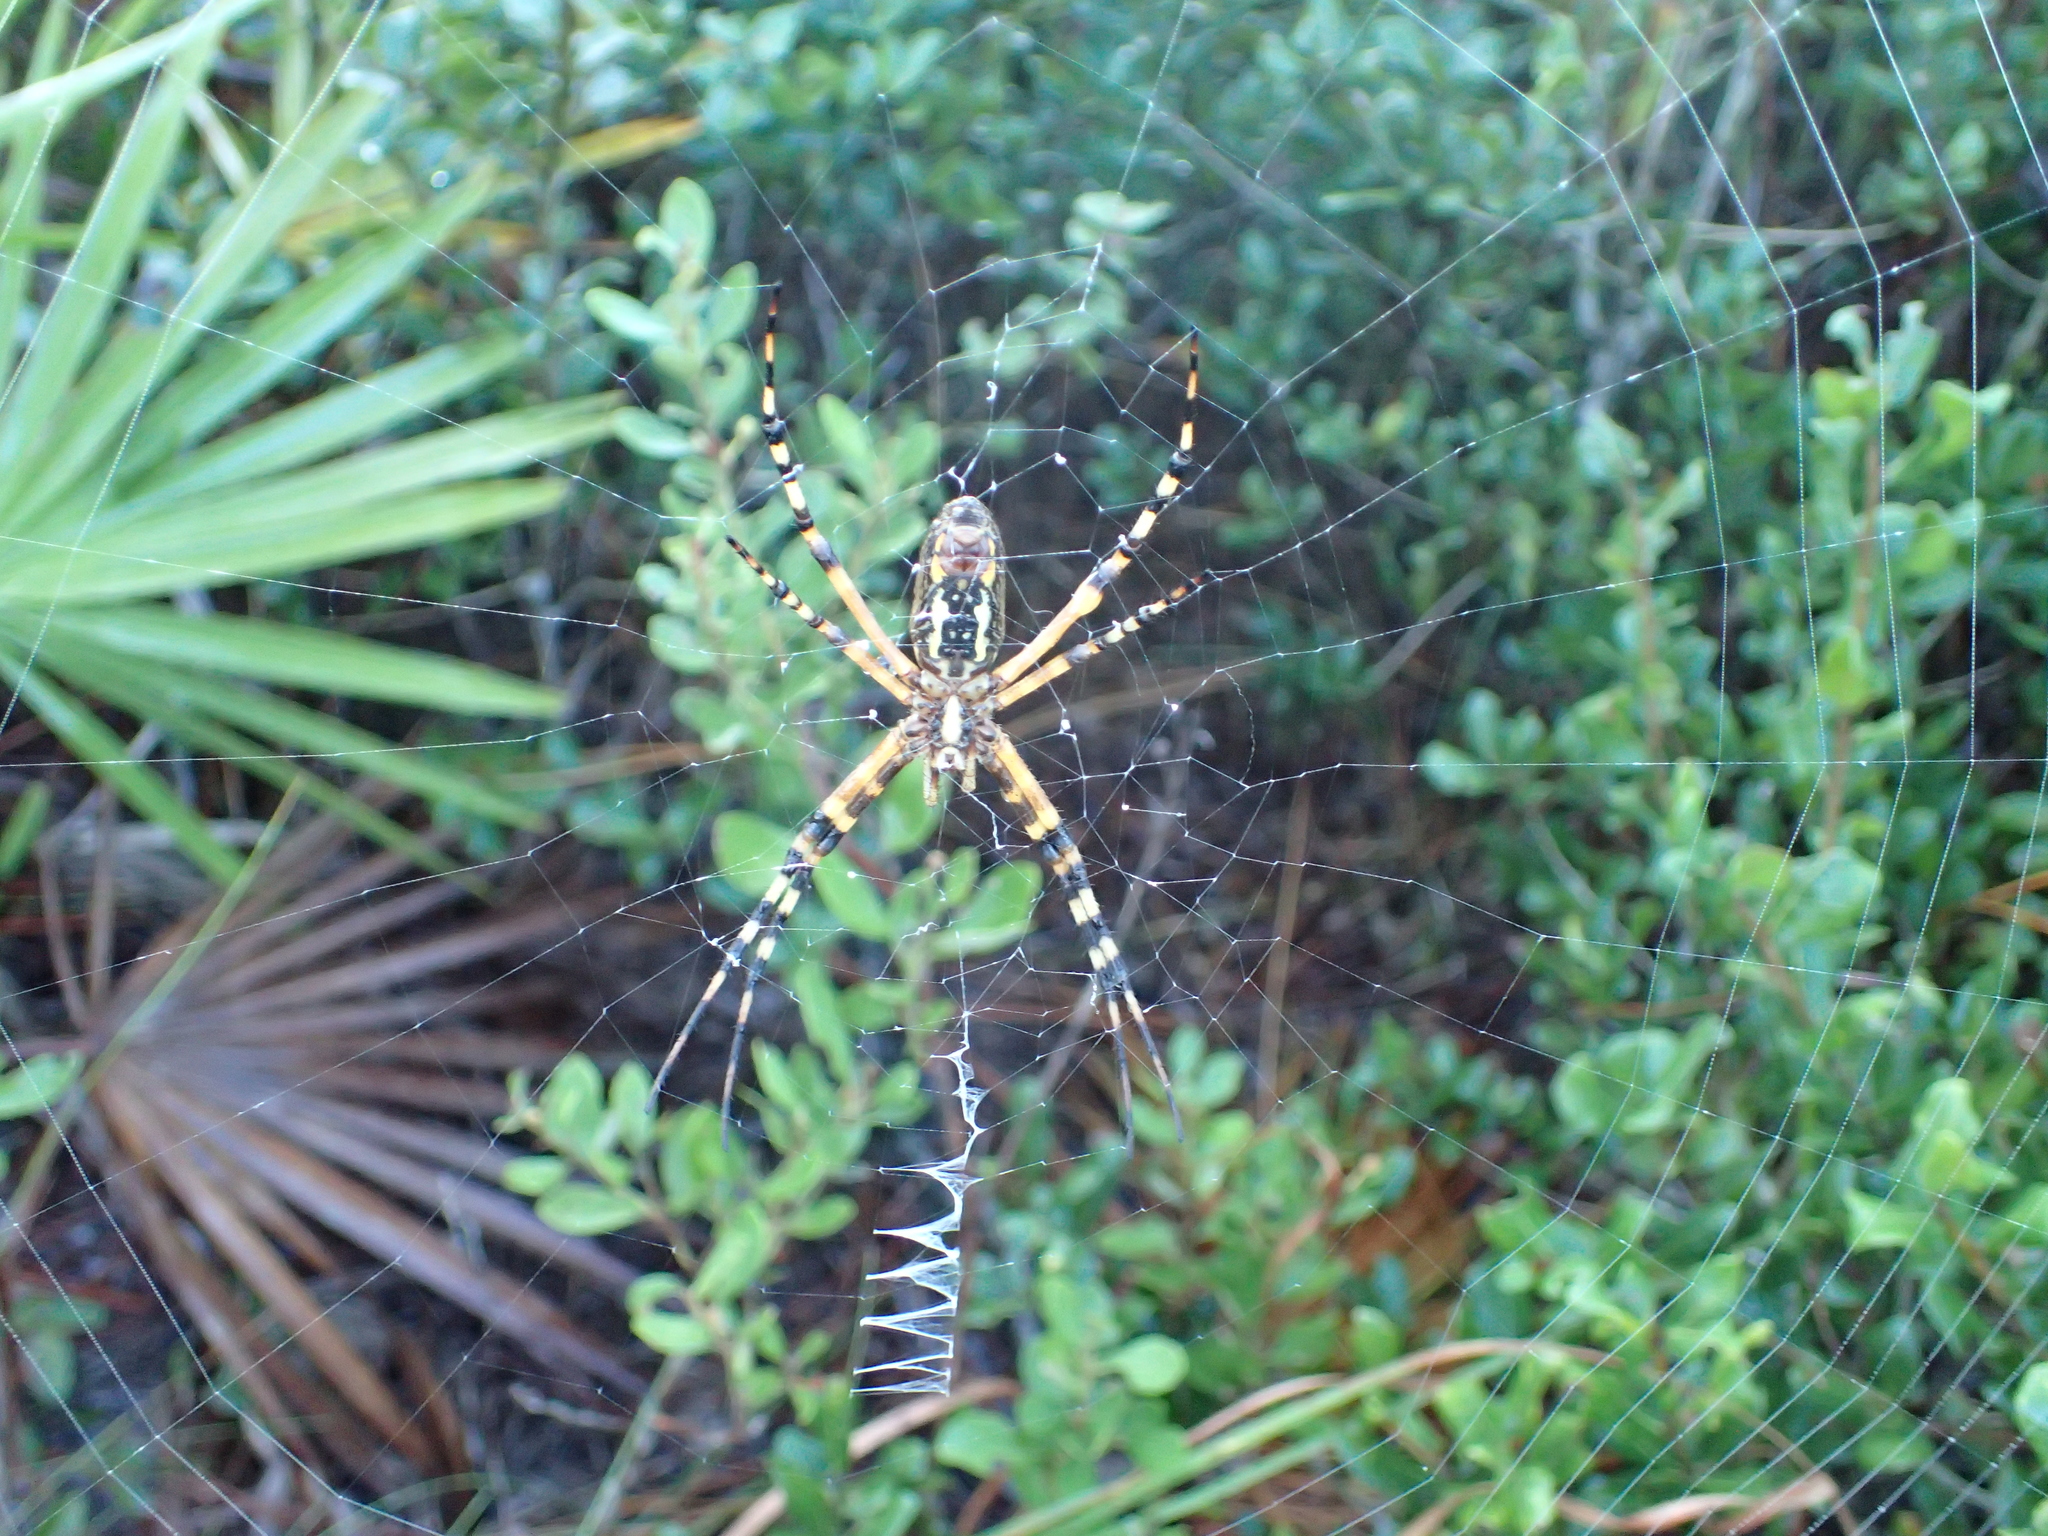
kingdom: Animalia
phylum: Arthropoda
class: Arachnida
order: Araneae
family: Araneidae
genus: Argiope
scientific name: Argiope aurantia
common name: Orb weavers
